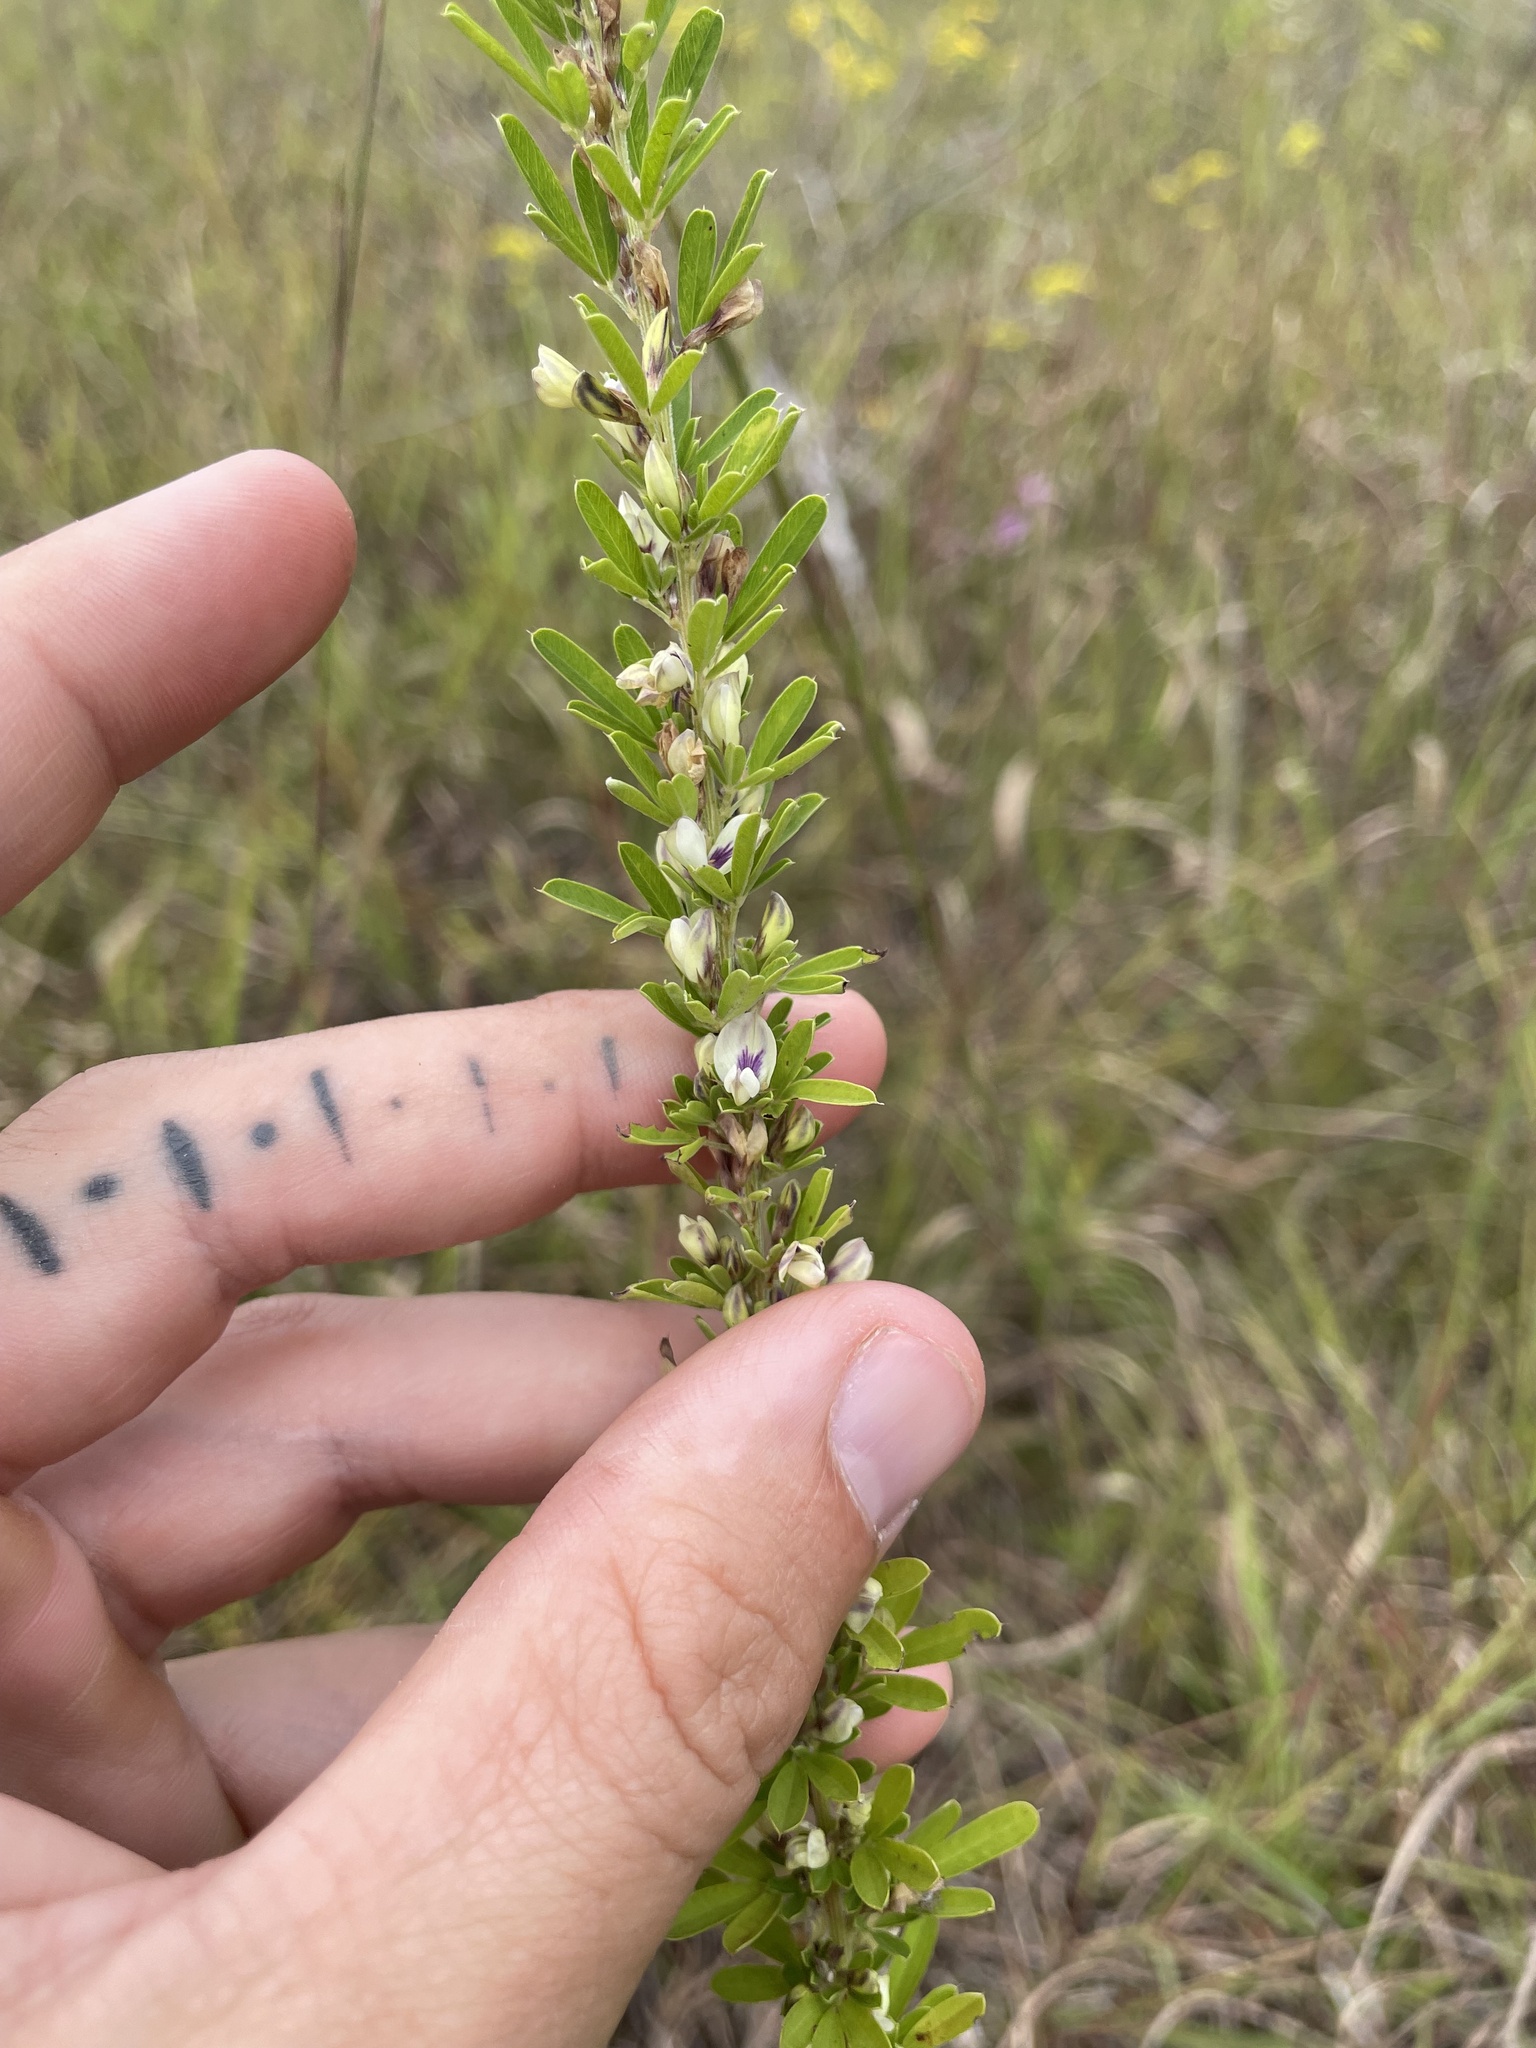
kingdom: Plantae
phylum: Tracheophyta
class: Magnoliopsida
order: Fabales
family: Fabaceae
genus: Lespedeza
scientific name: Lespedeza cuneata
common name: Chinese bush-clover
